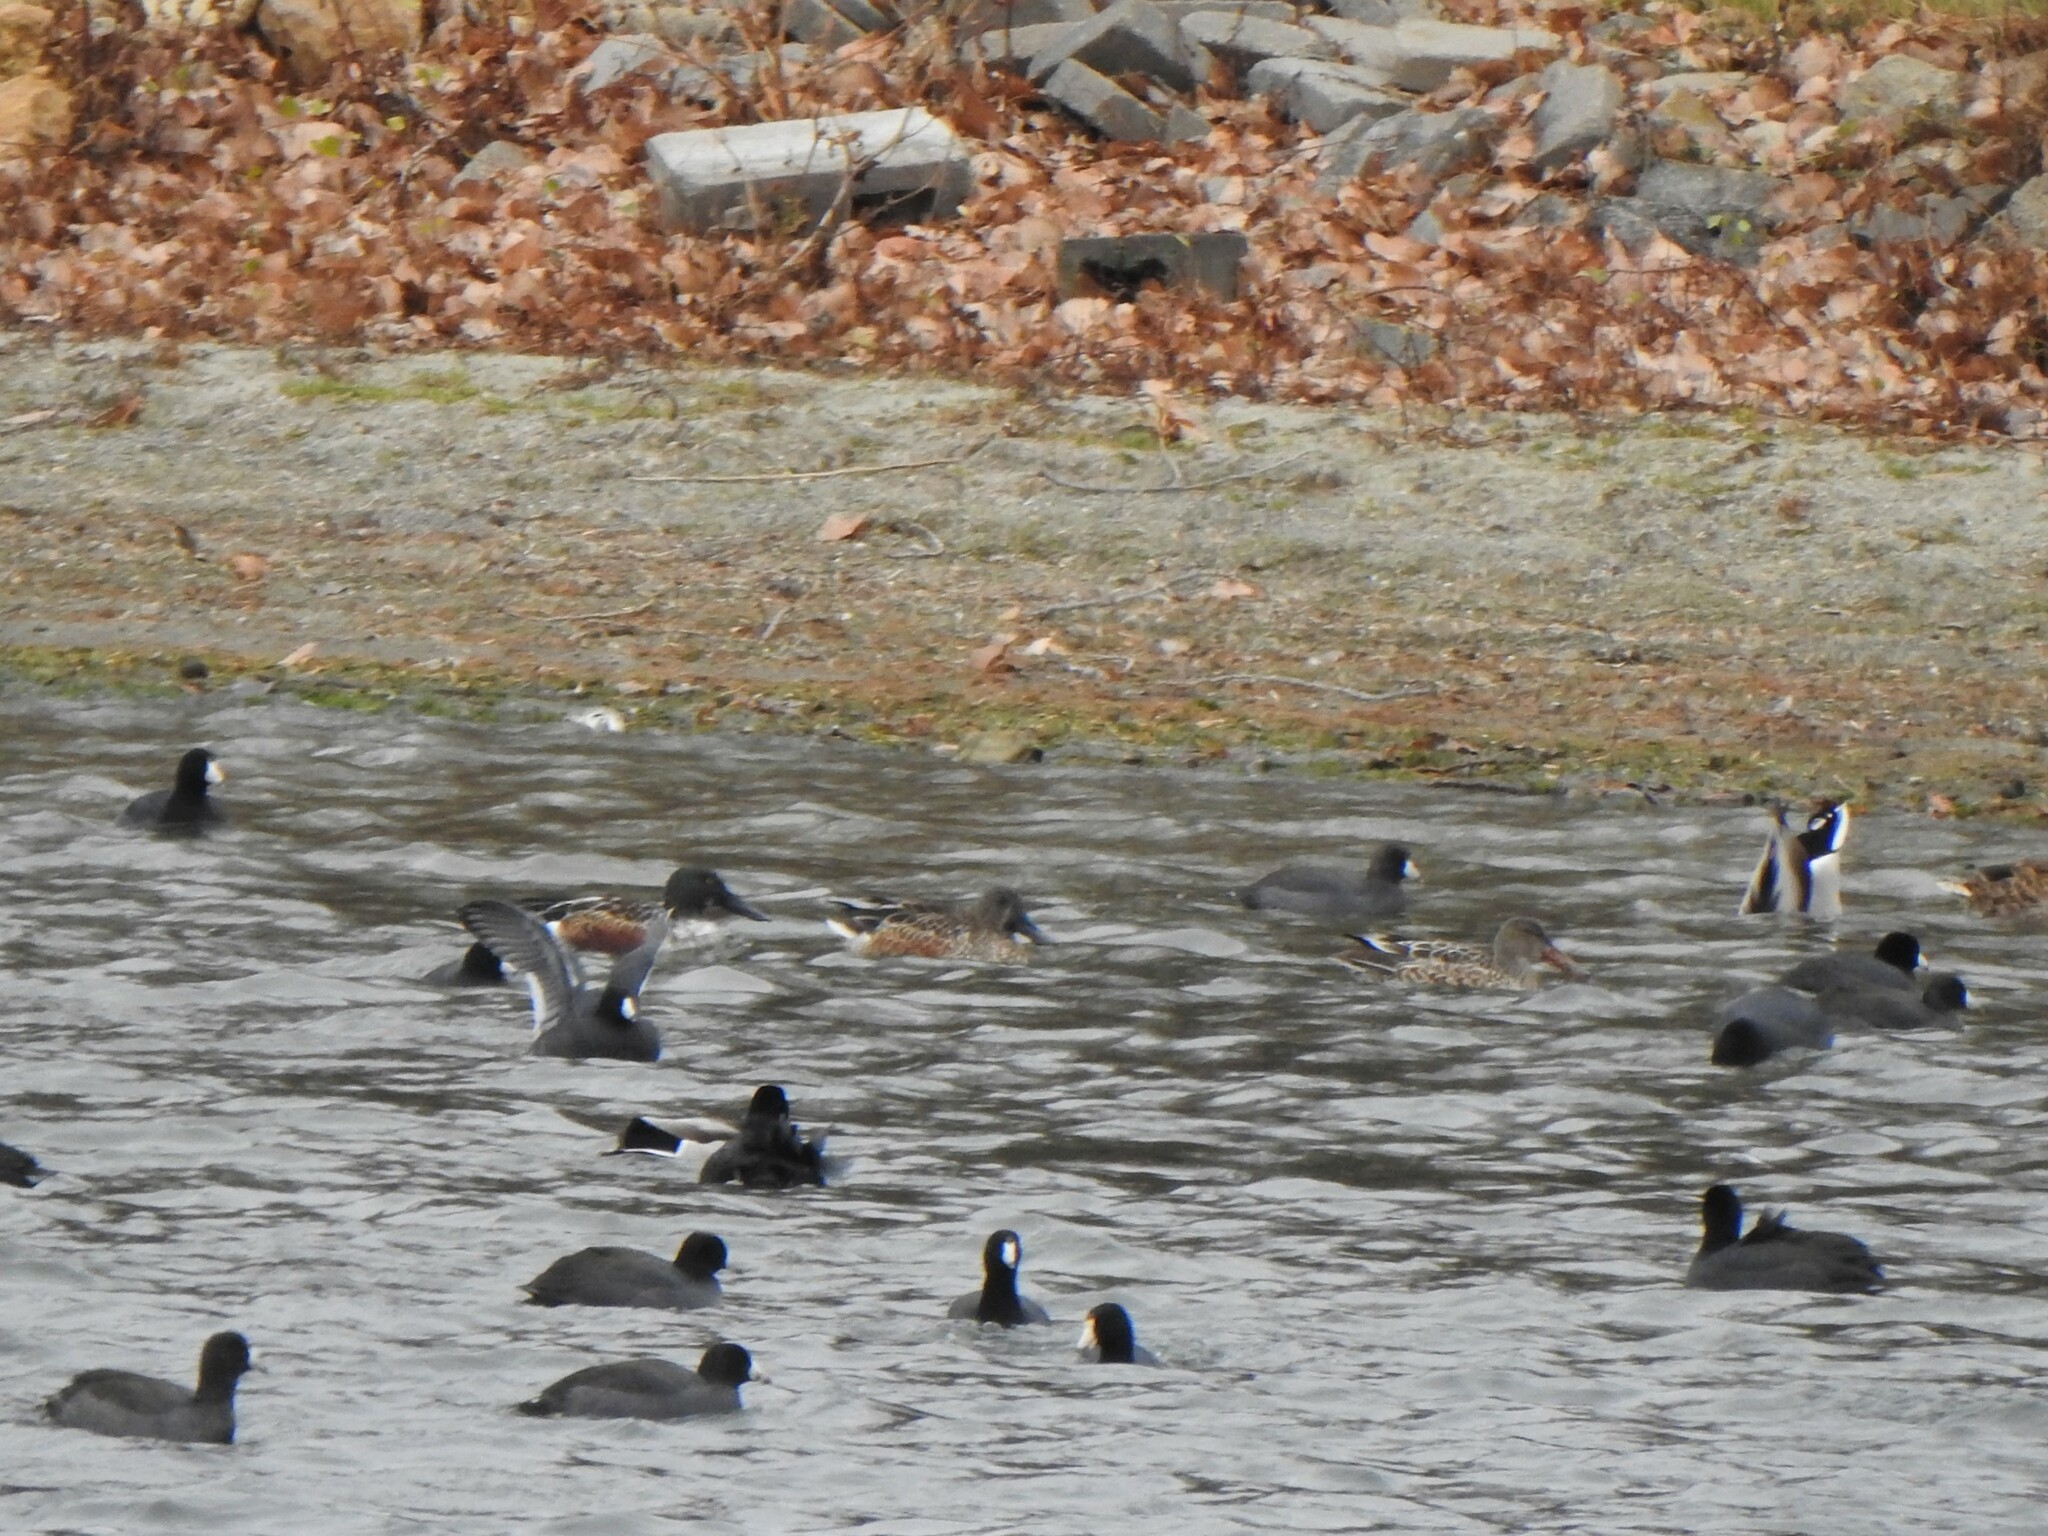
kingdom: Animalia
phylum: Chordata
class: Aves
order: Anseriformes
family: Anatidae
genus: Spatula
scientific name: Spatula clypeata
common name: Northern shoveler
